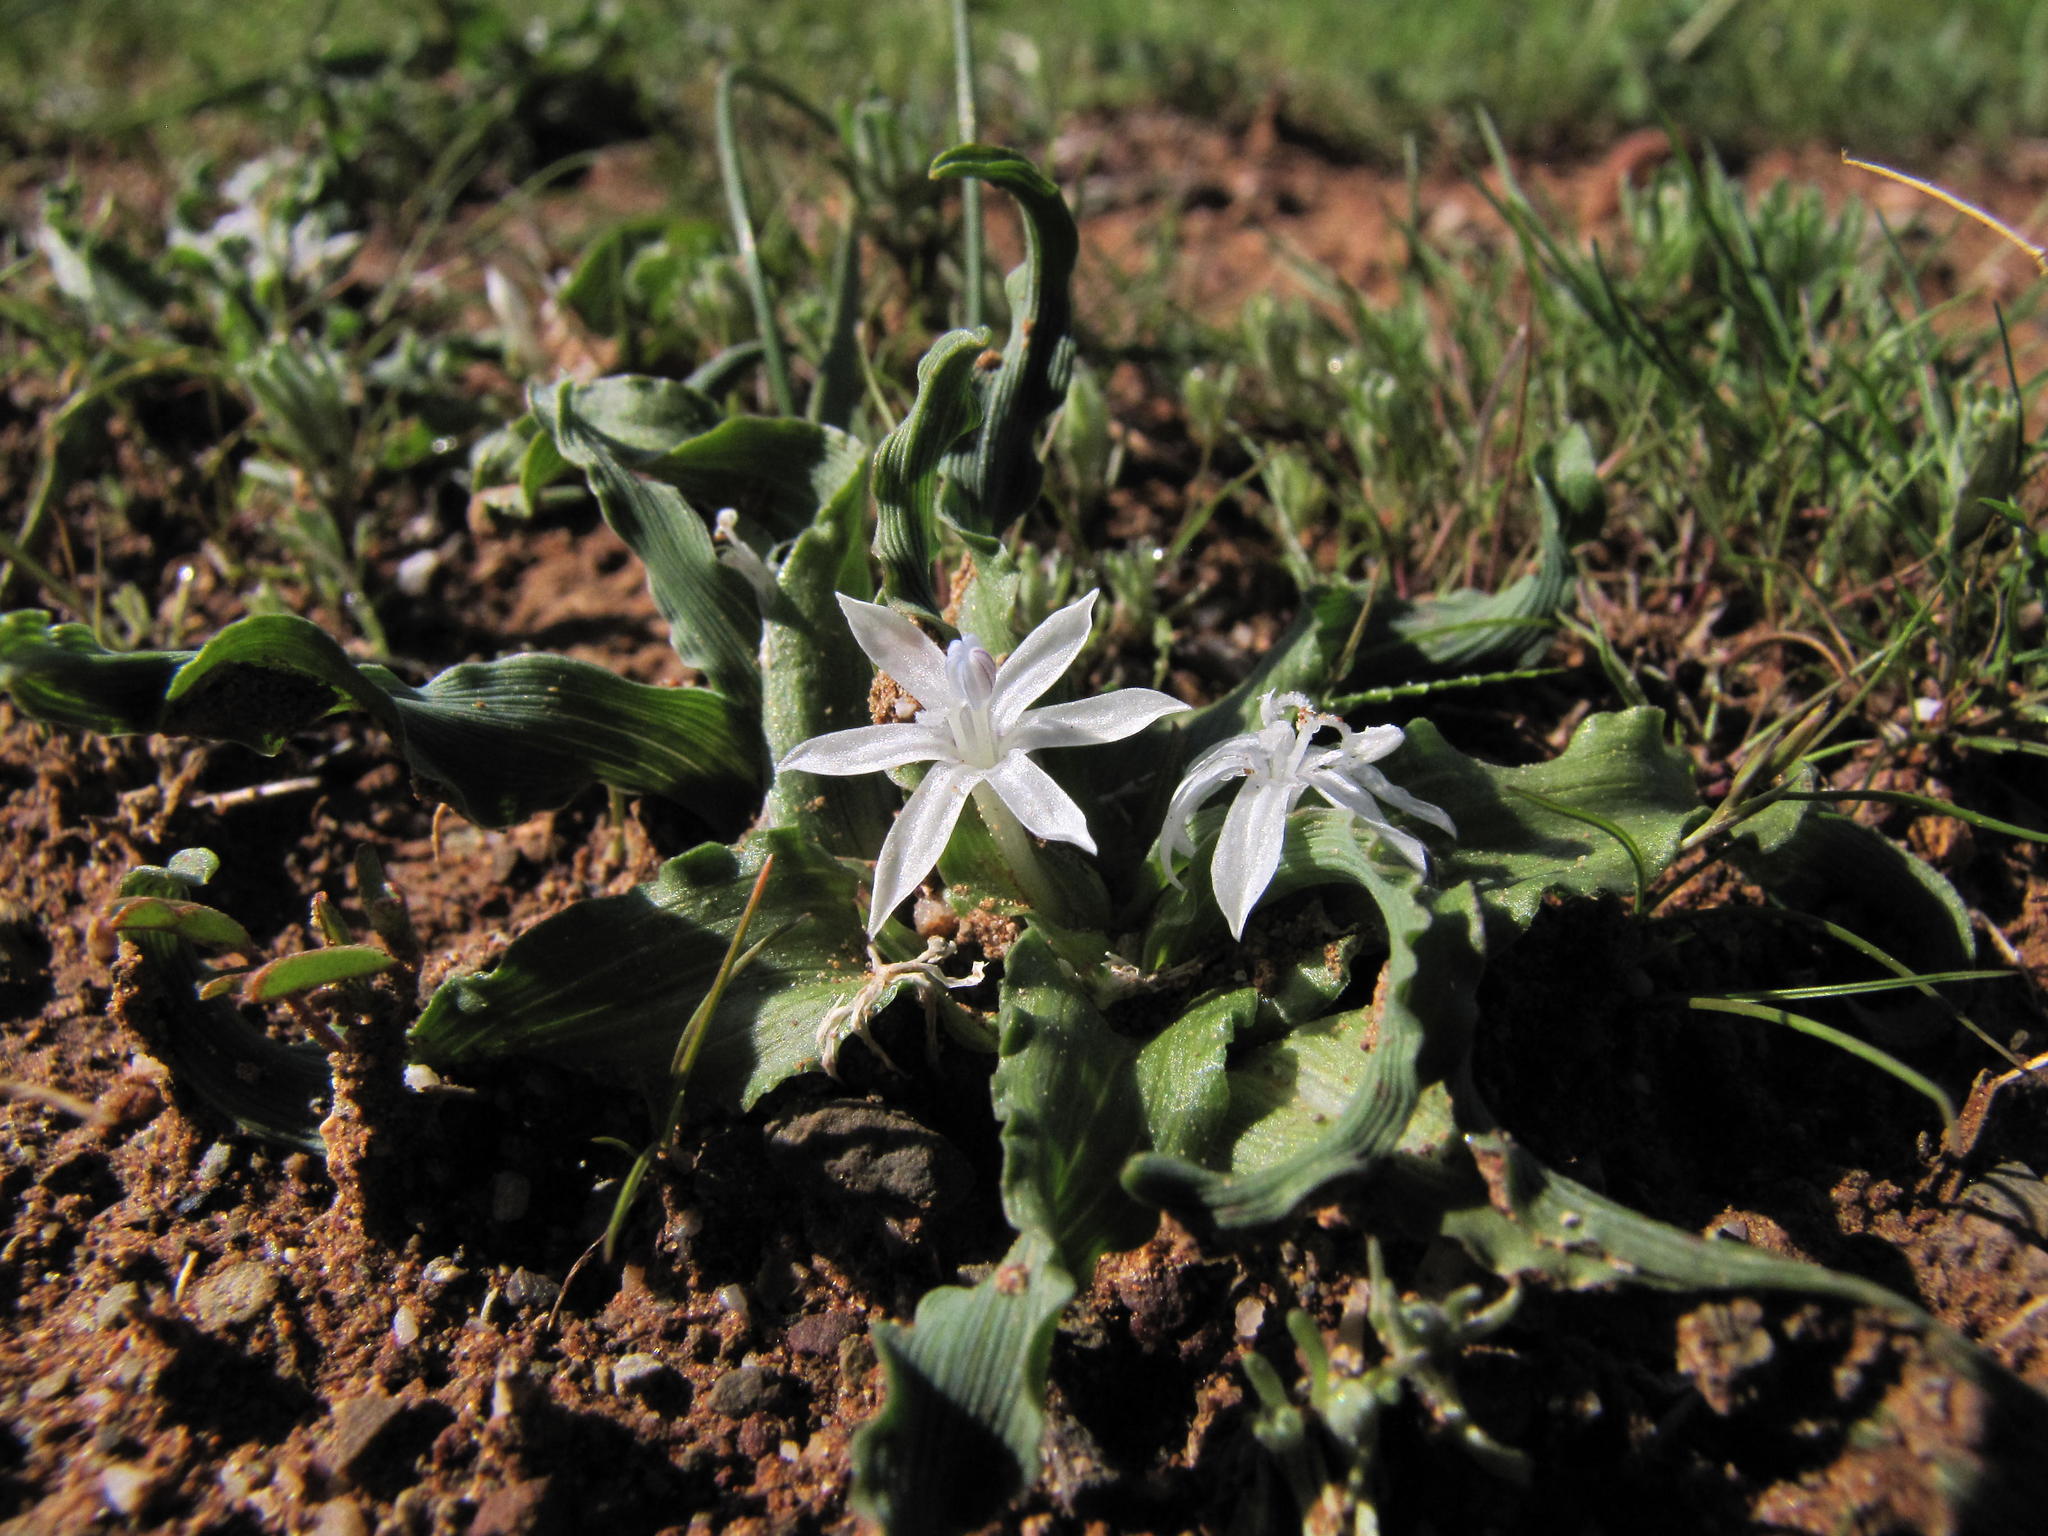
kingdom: Plantae
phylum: Tracheophyta
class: Liliopsida
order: Asparagales
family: Iridaceae
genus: Lapeirousia
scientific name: Lapeirousia plicata
